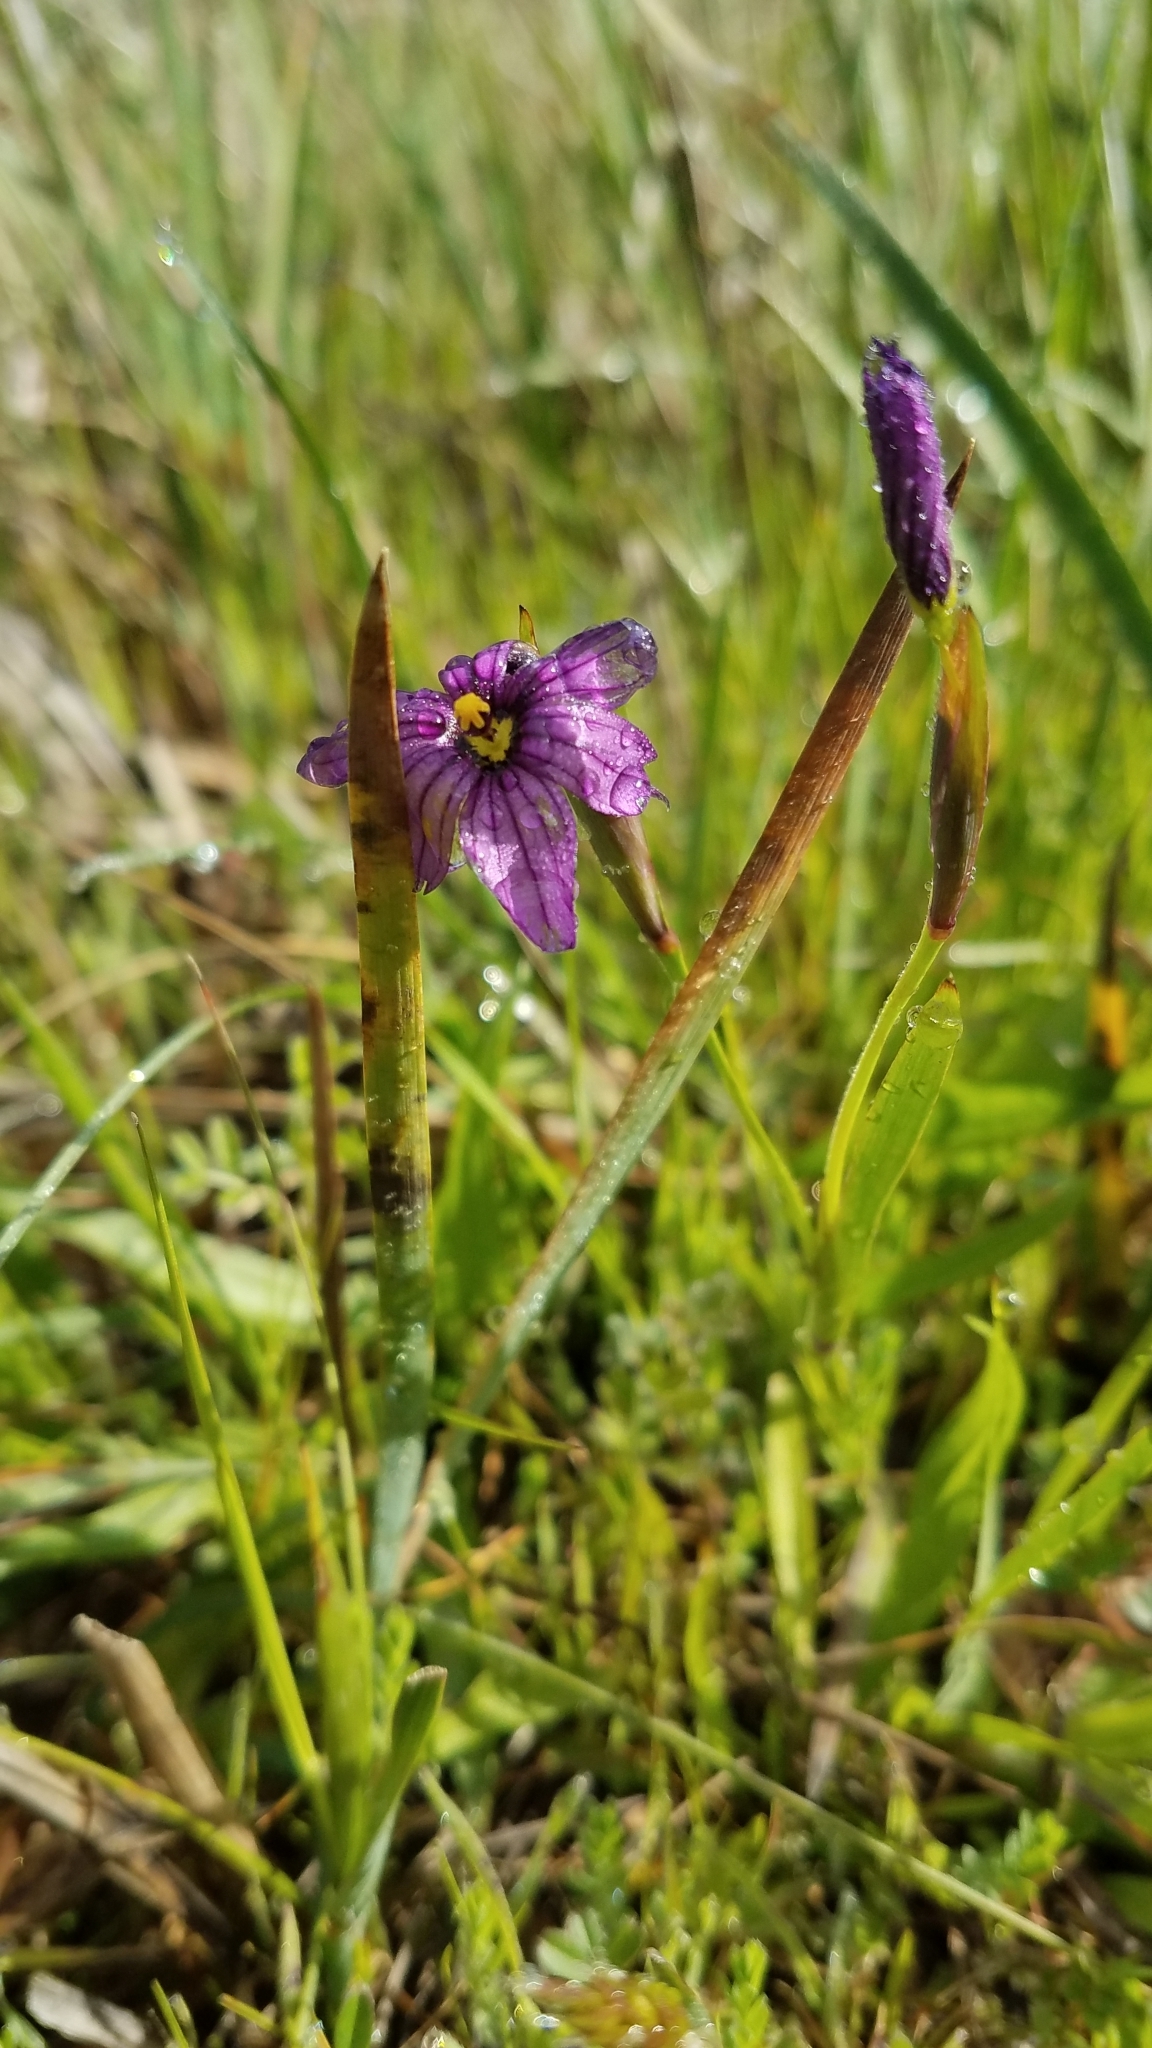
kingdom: Plantae
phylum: Tracheophyta
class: Liliopsida
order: Asparagales
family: Iridaceae
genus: Sisyrinchium
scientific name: Sisyrinchium bellum
